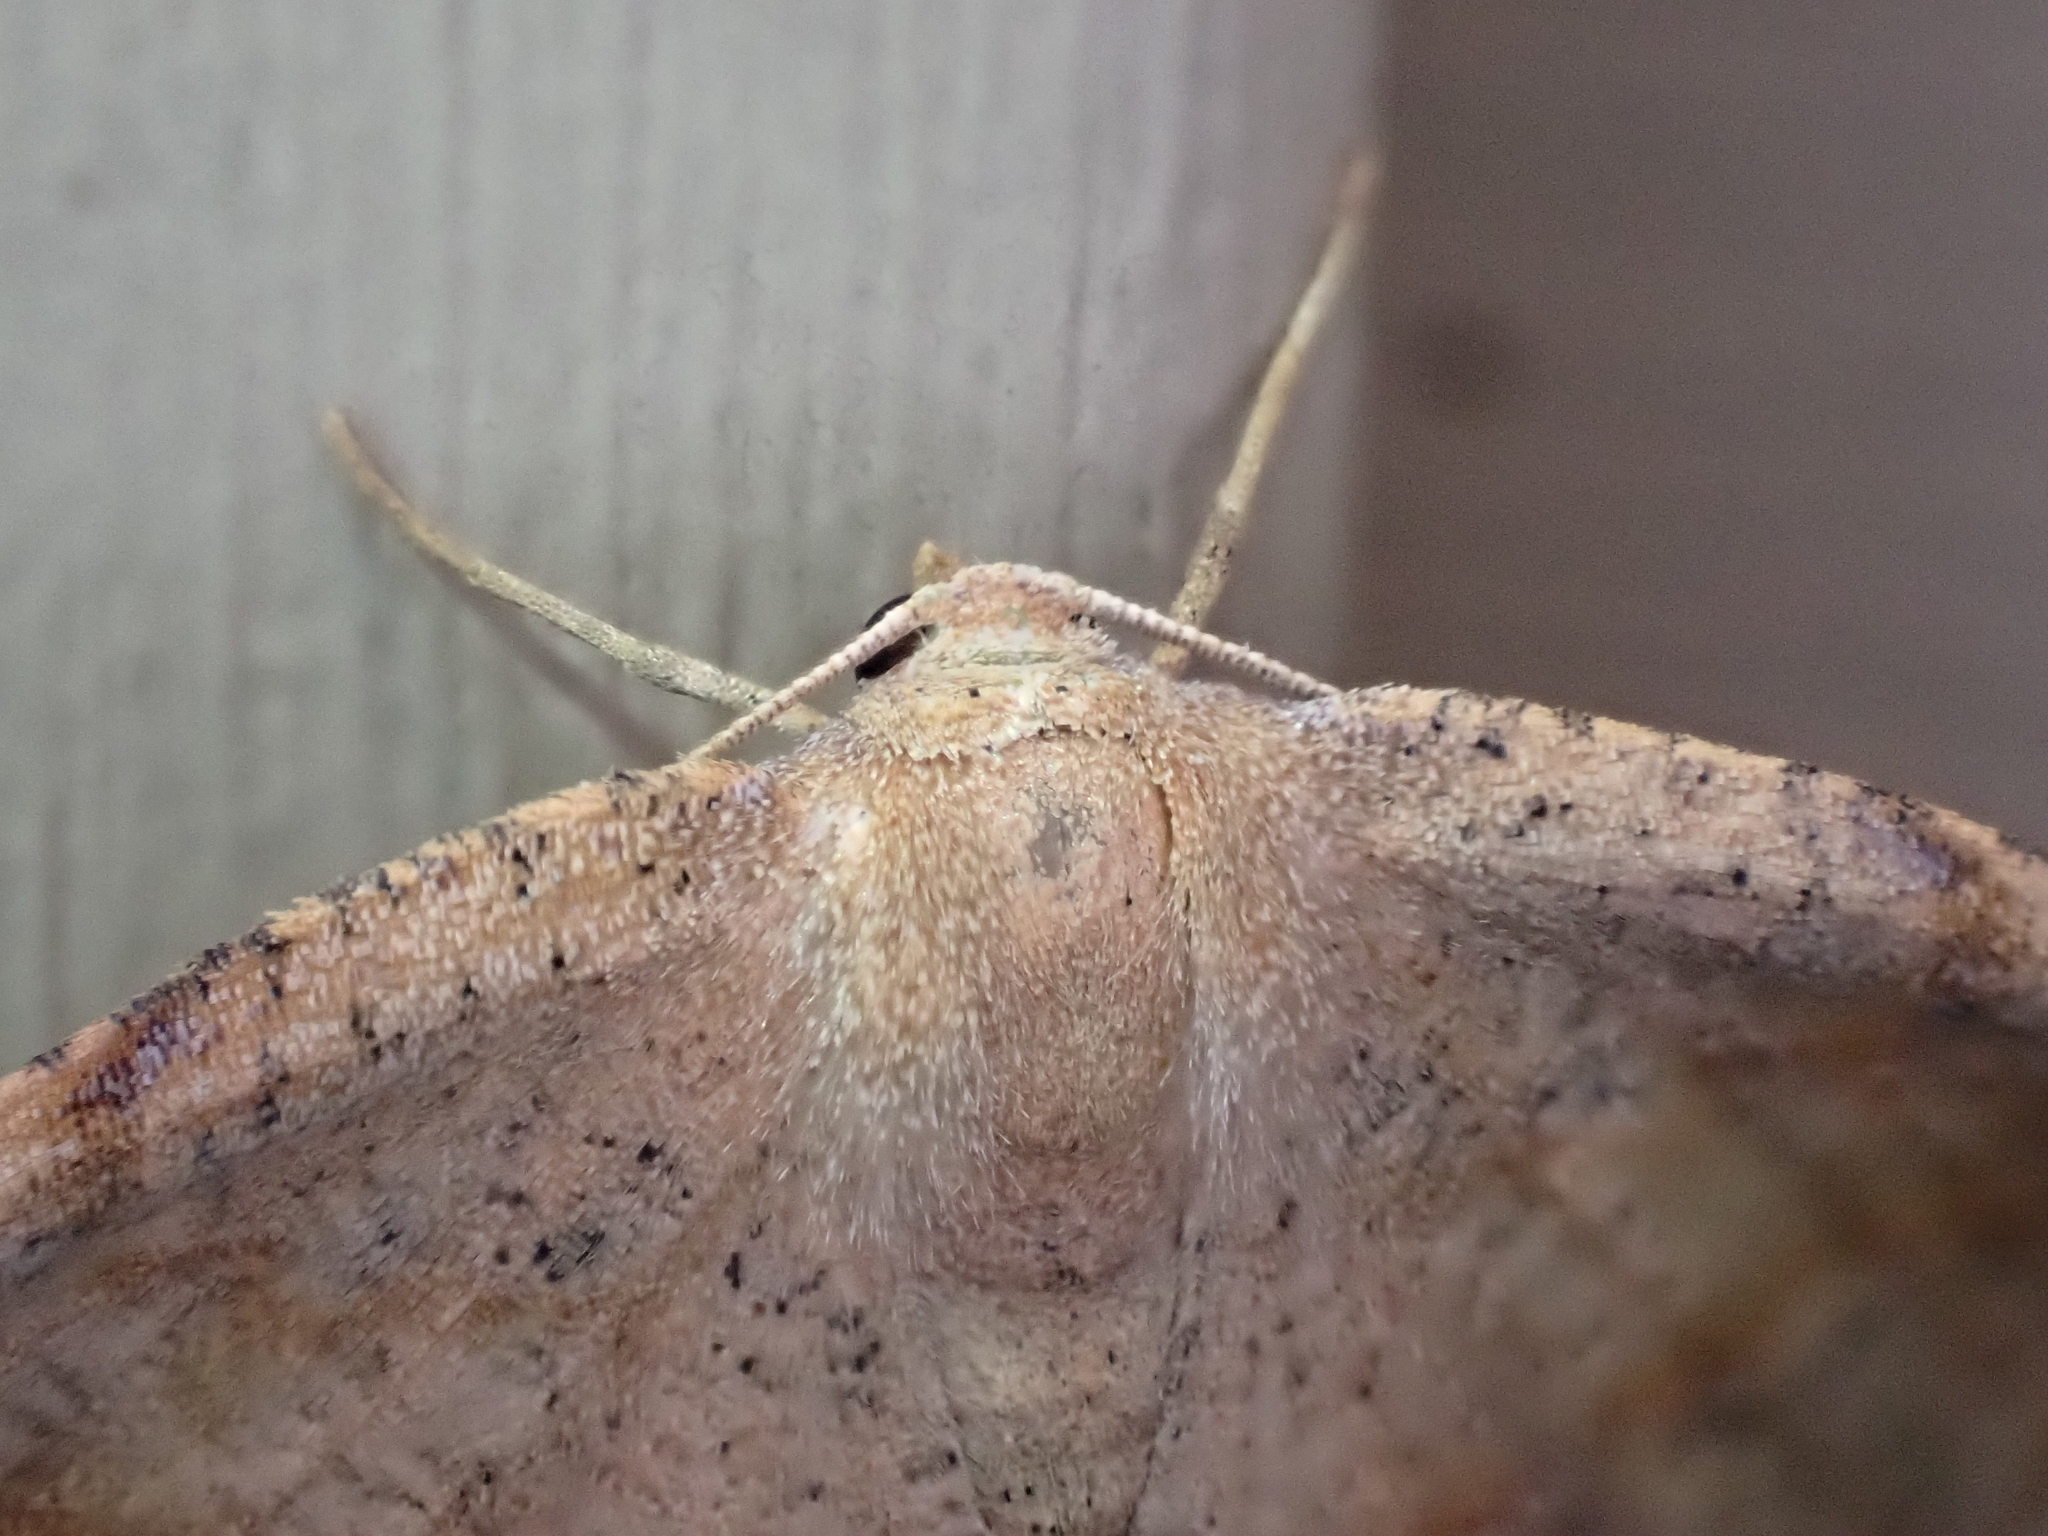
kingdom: Animalia
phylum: Arthropoda
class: Insecta
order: Lepidoptera
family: Geometridae
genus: Patalene
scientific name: Patalene olyzonaria
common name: Juniper geometer moth
